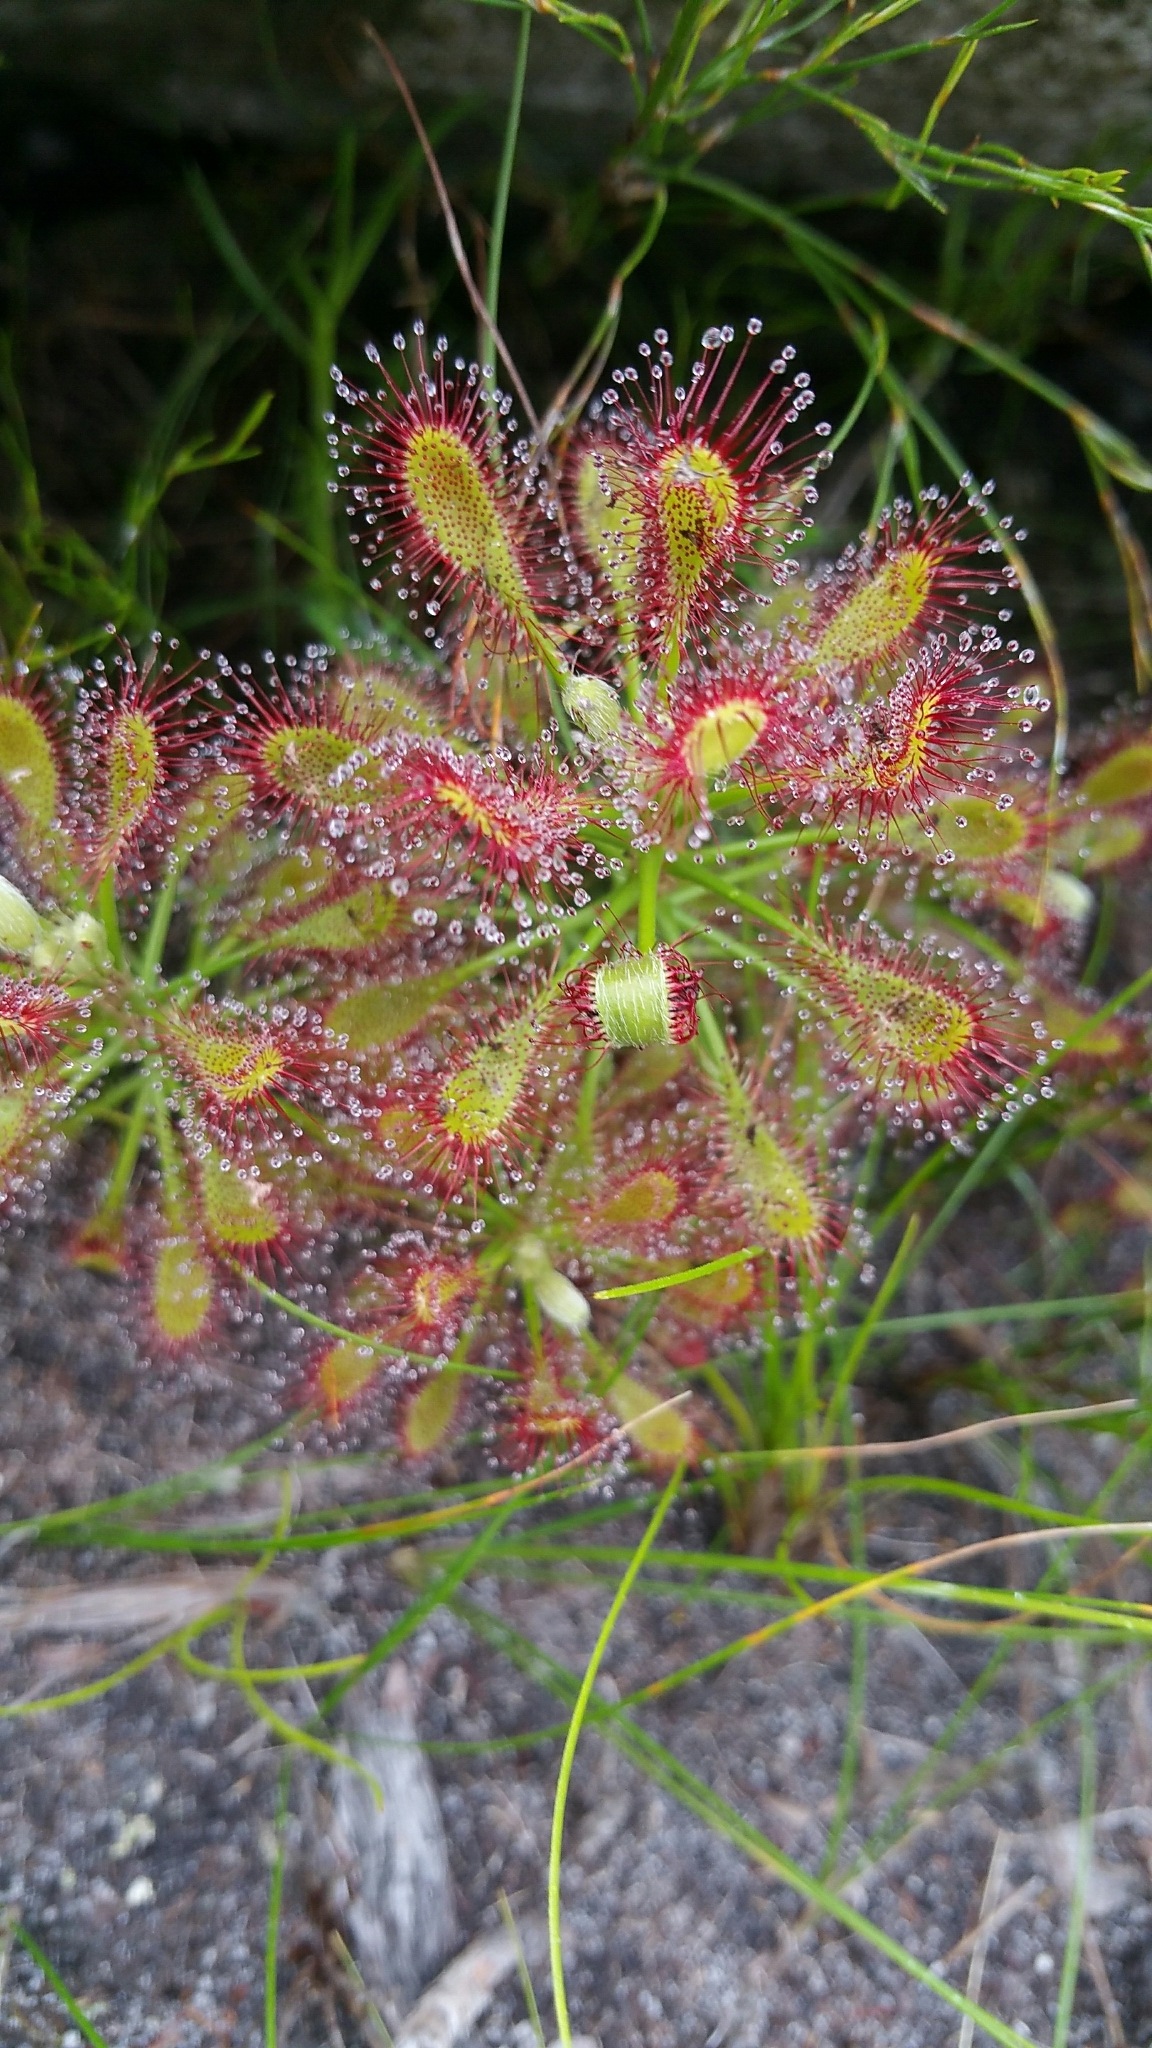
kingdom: Plantae
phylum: Tracheophyta
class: Magnoliopsida
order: Caryophyllales
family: Droseraceae
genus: Drosera
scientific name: Drosera glabripes
